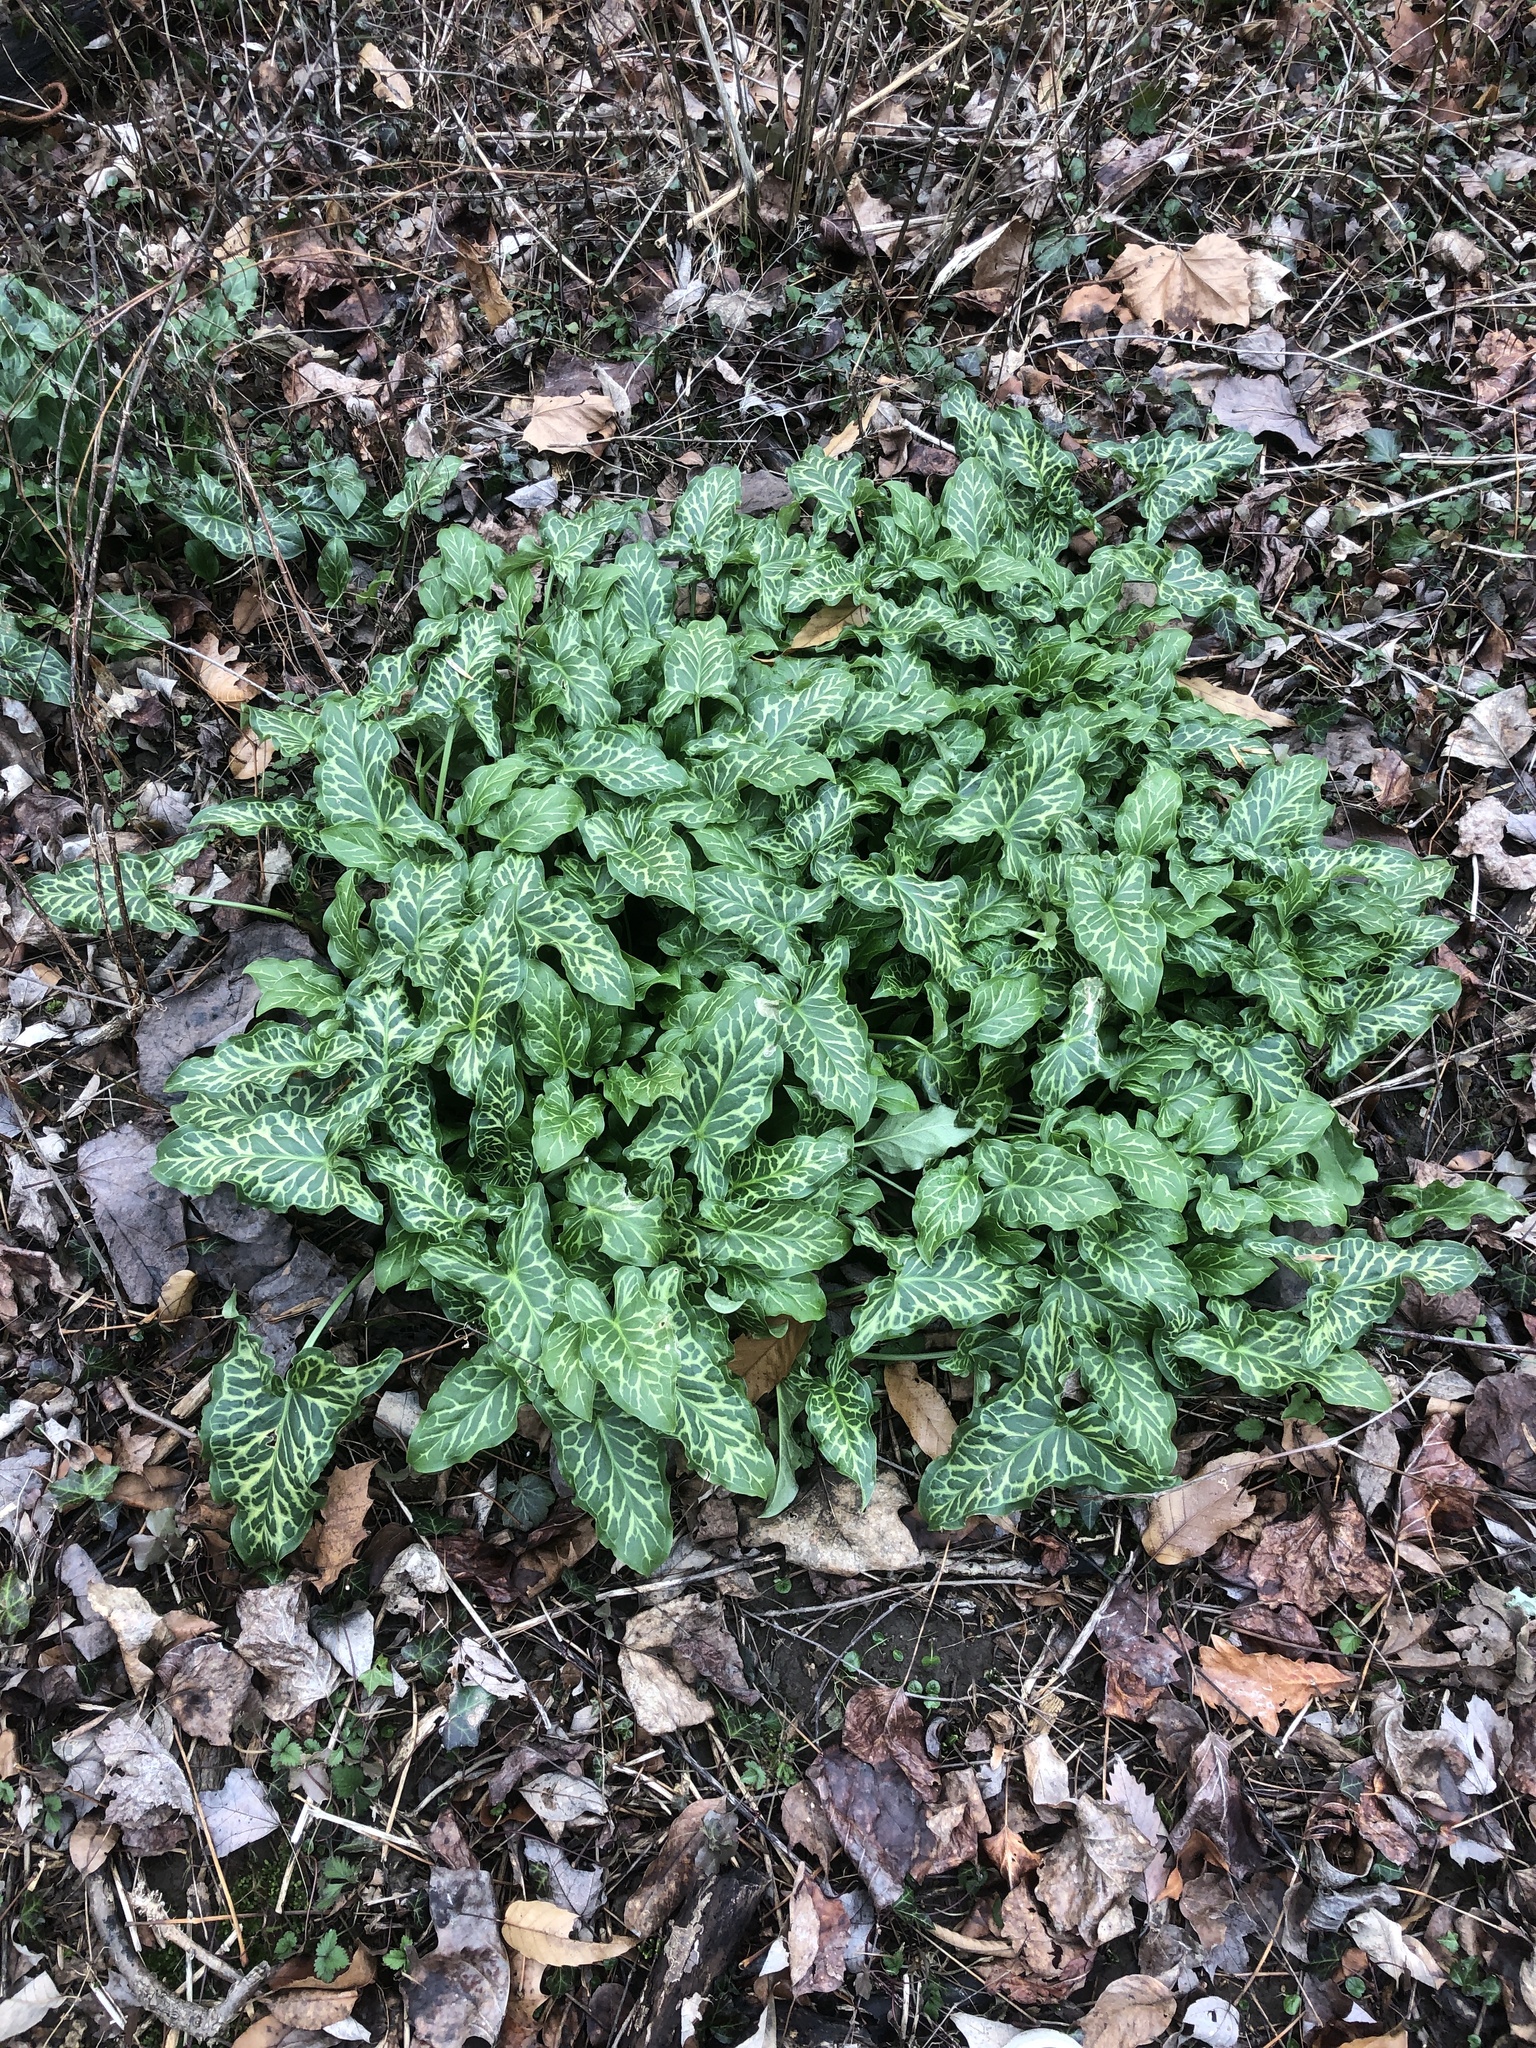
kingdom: Plantae
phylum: Tracheophyta
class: Liliopsida
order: Alismatales
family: Araceae
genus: Arum
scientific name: Arum italicum
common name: Italian lords-and-ladies
